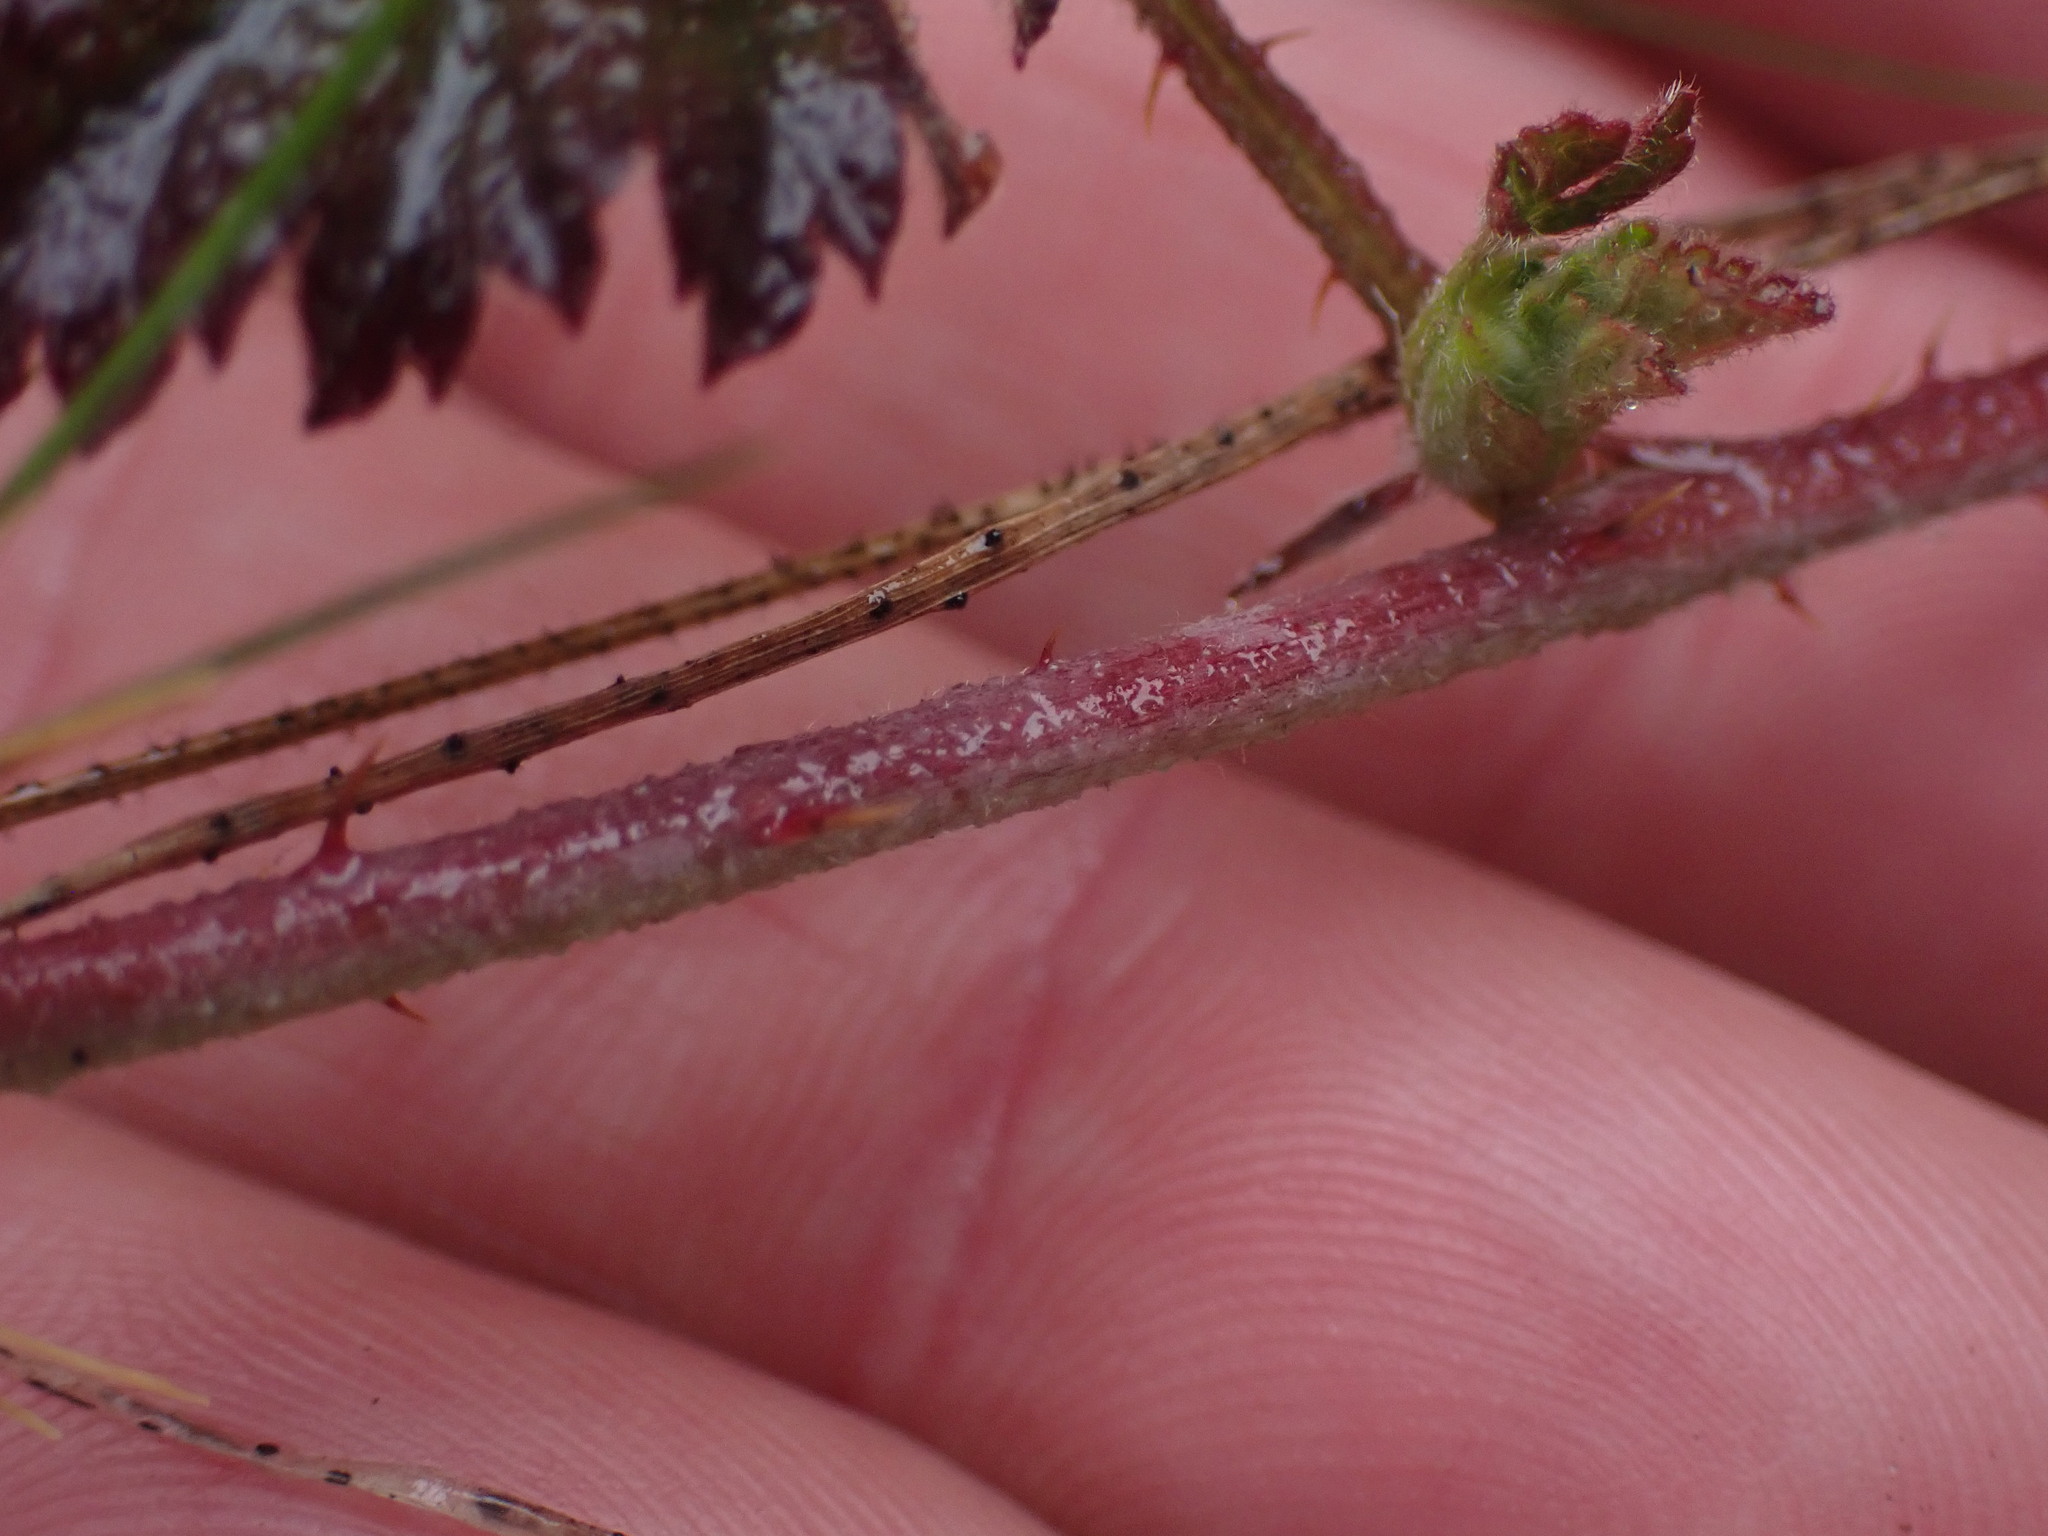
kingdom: Plantae
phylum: Tracheophyta
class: Magnoliopsida
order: Rosales
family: Rosaceae
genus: Rubus
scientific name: Rubus ursinus
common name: Pacific blackberry
